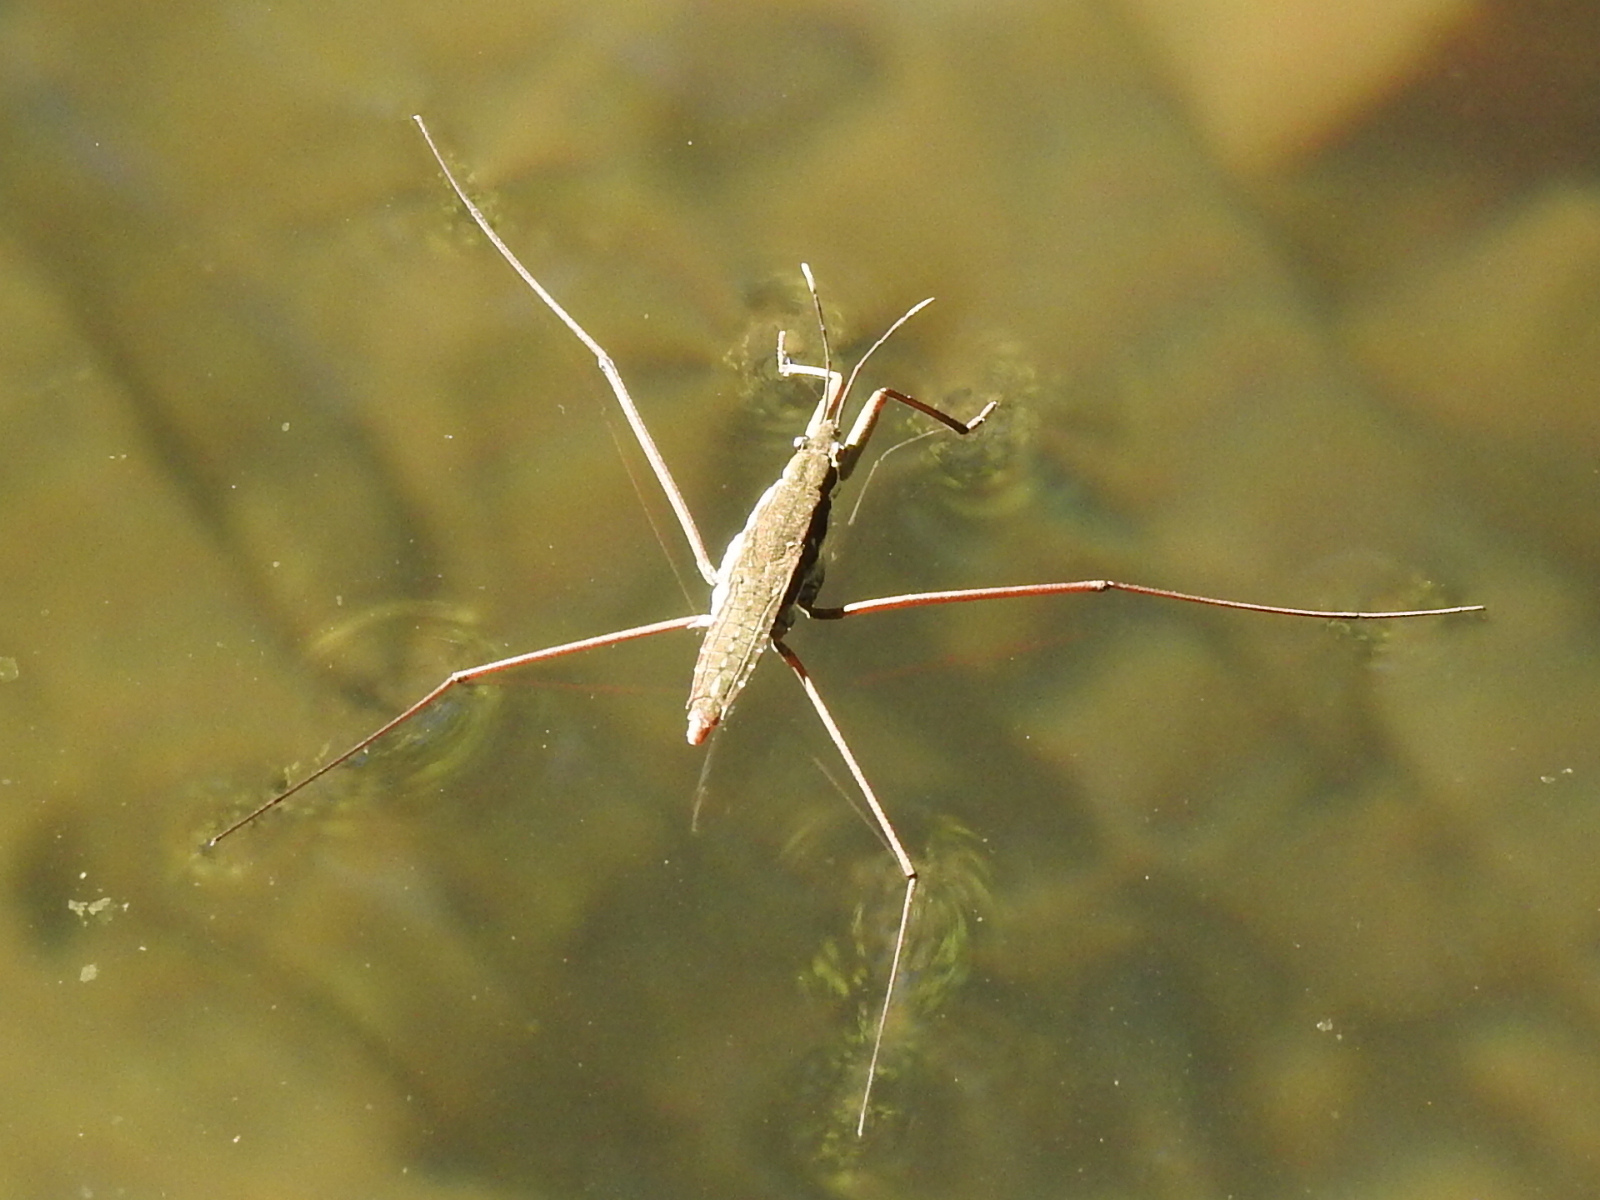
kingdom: Animalia
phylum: Arthropoda
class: Insecta
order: Hemiptera
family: Gerridae
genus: Aquarius
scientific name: Aquarius remigis
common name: Common water strider
